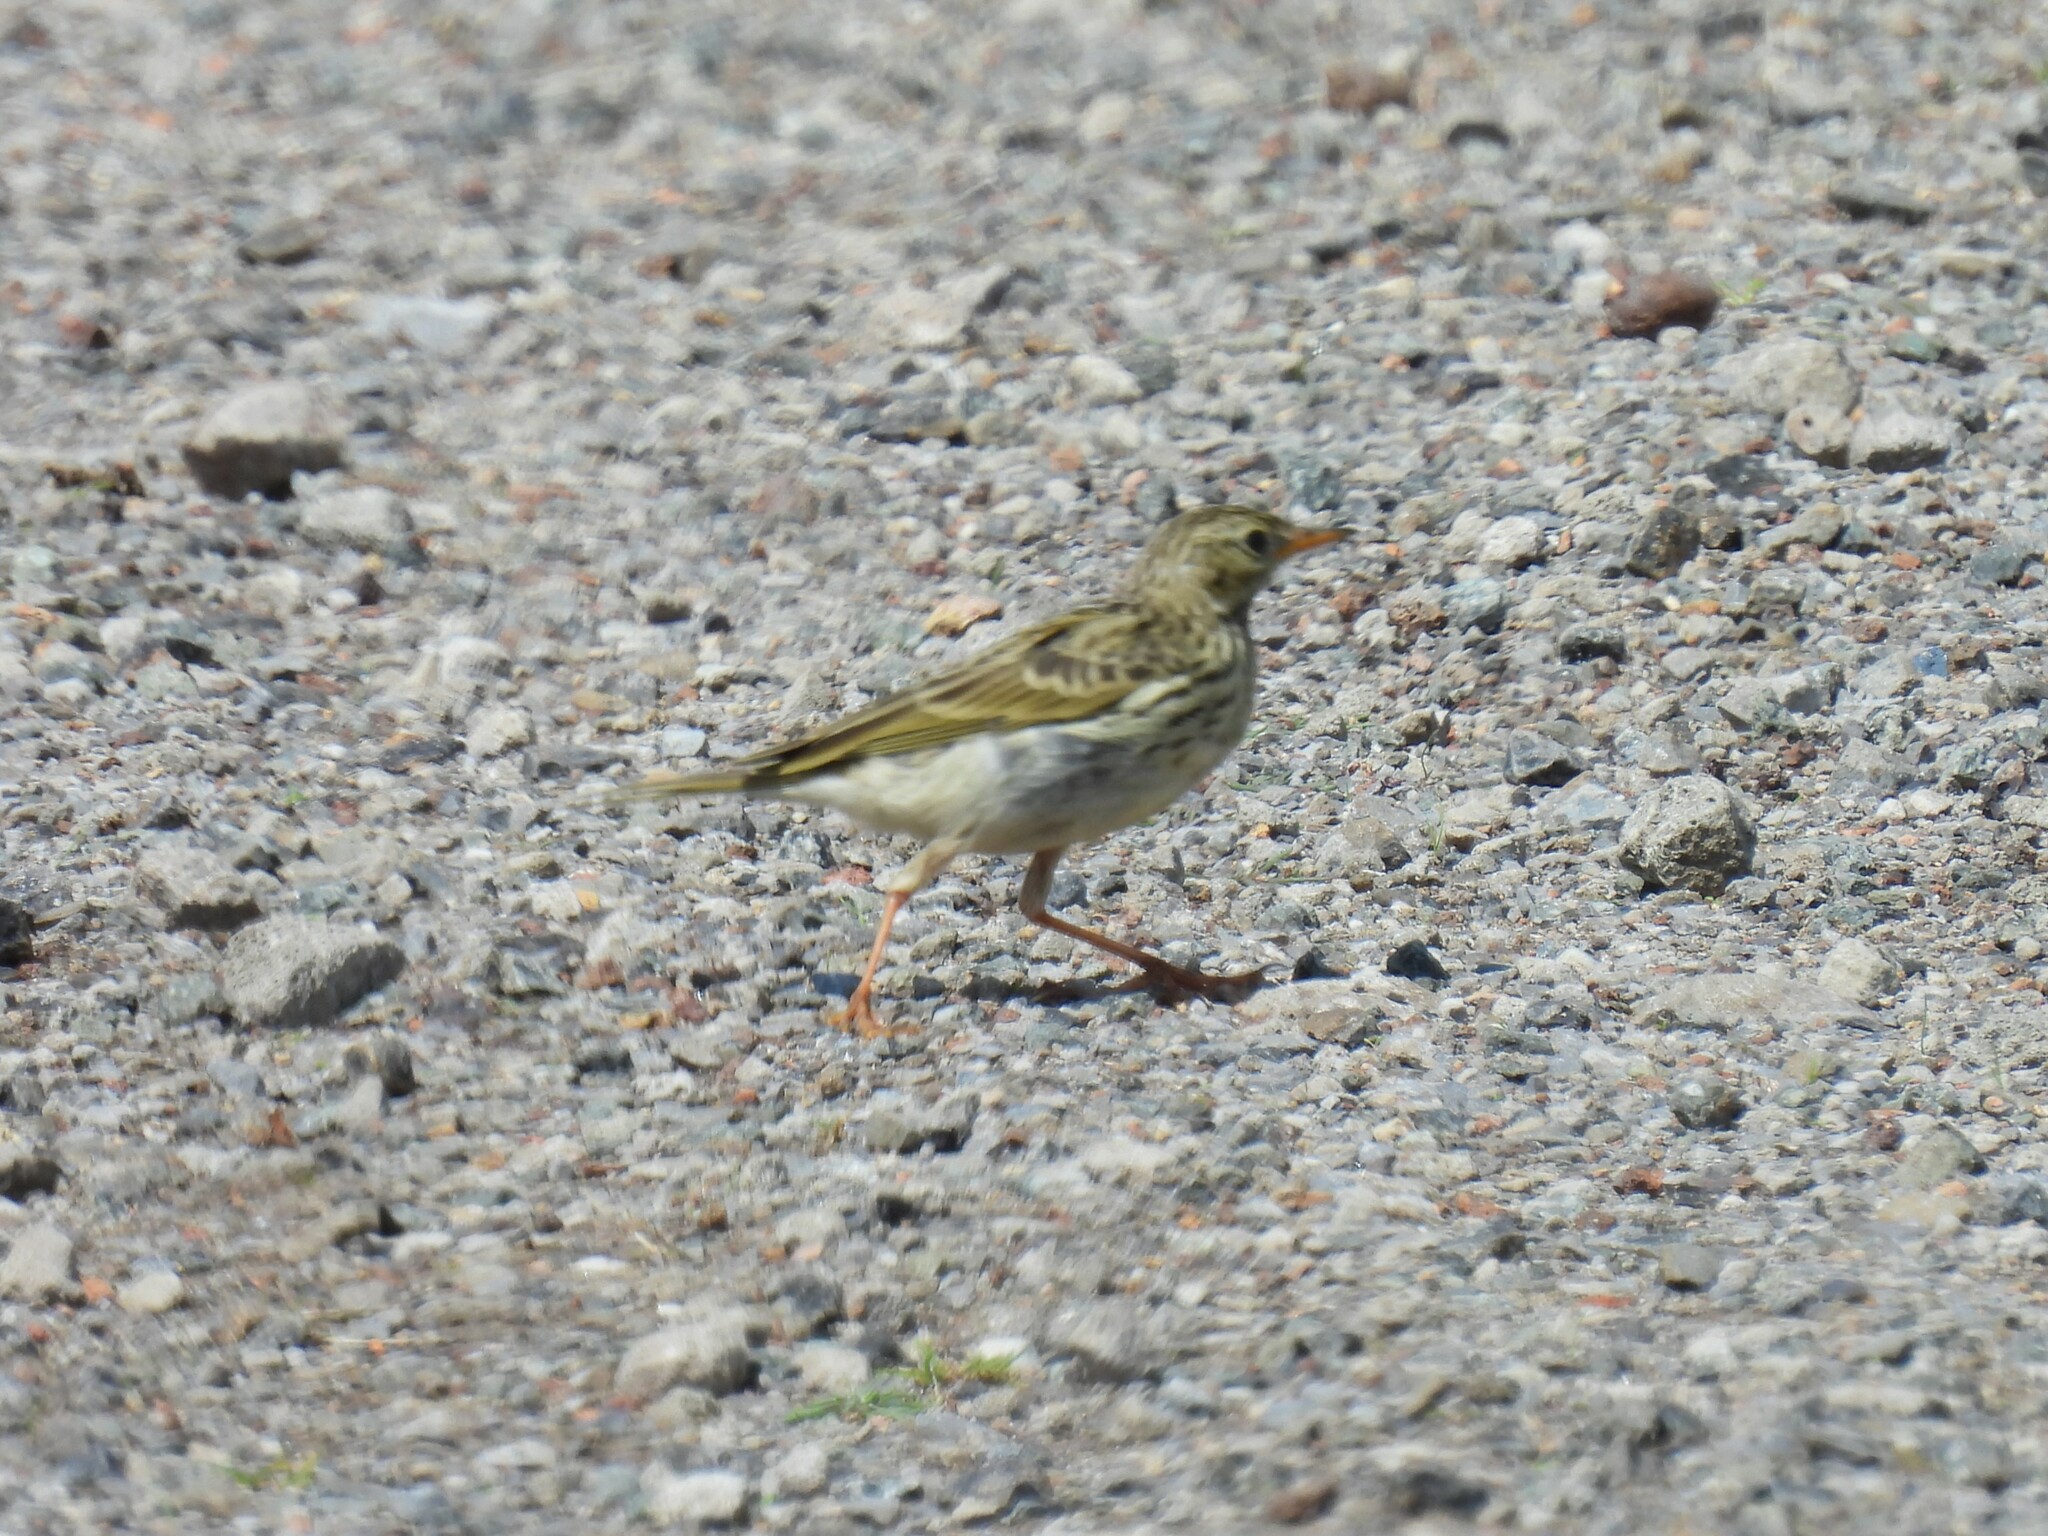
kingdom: Animalia
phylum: Chordata
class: Aves
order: Passeriformes
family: Motacillidae
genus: Anthus
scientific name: Anthus pratensis
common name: Meadow pipit
